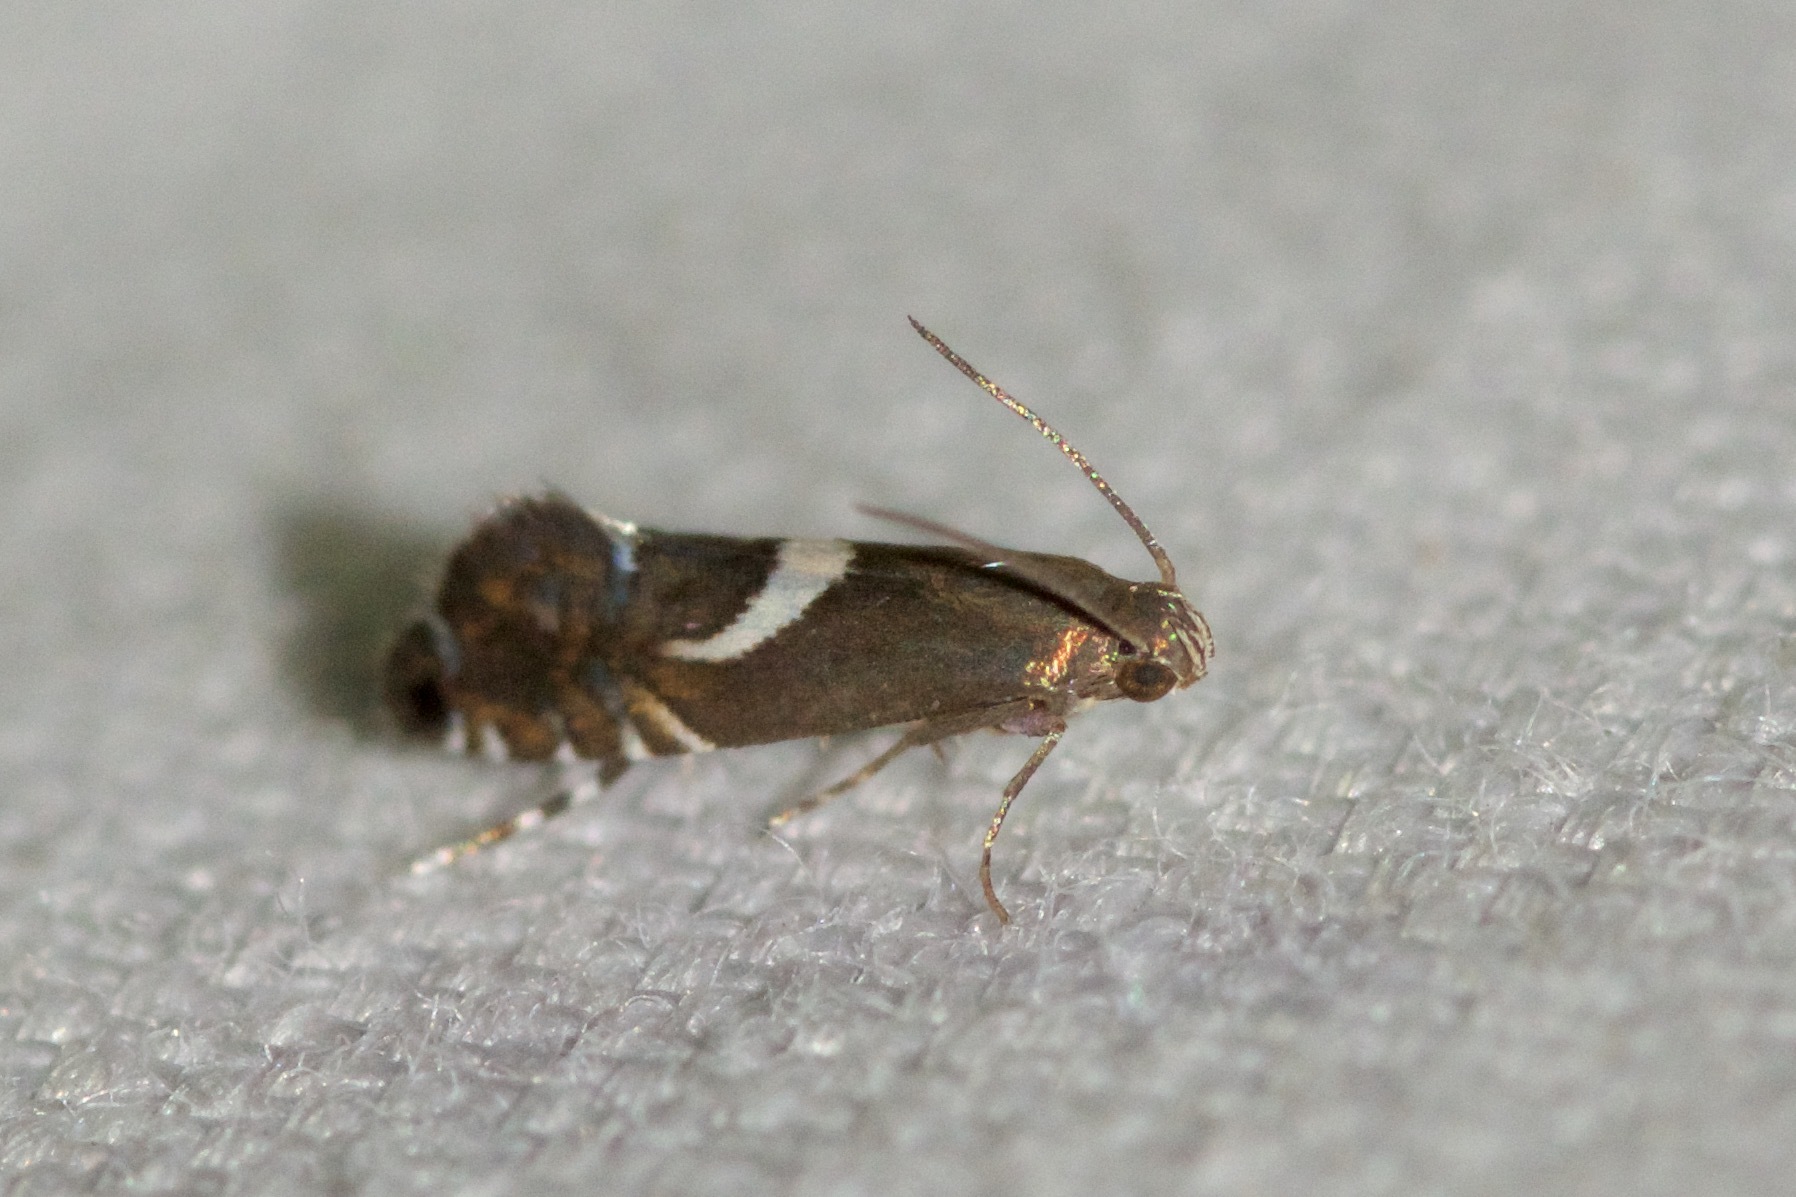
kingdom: Animalia
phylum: Arthropoda
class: Insecta
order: Lepidoptera
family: Glyphipterigidae
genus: Glyphipterix
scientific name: Glyphipterix Diploschizia impigritella
